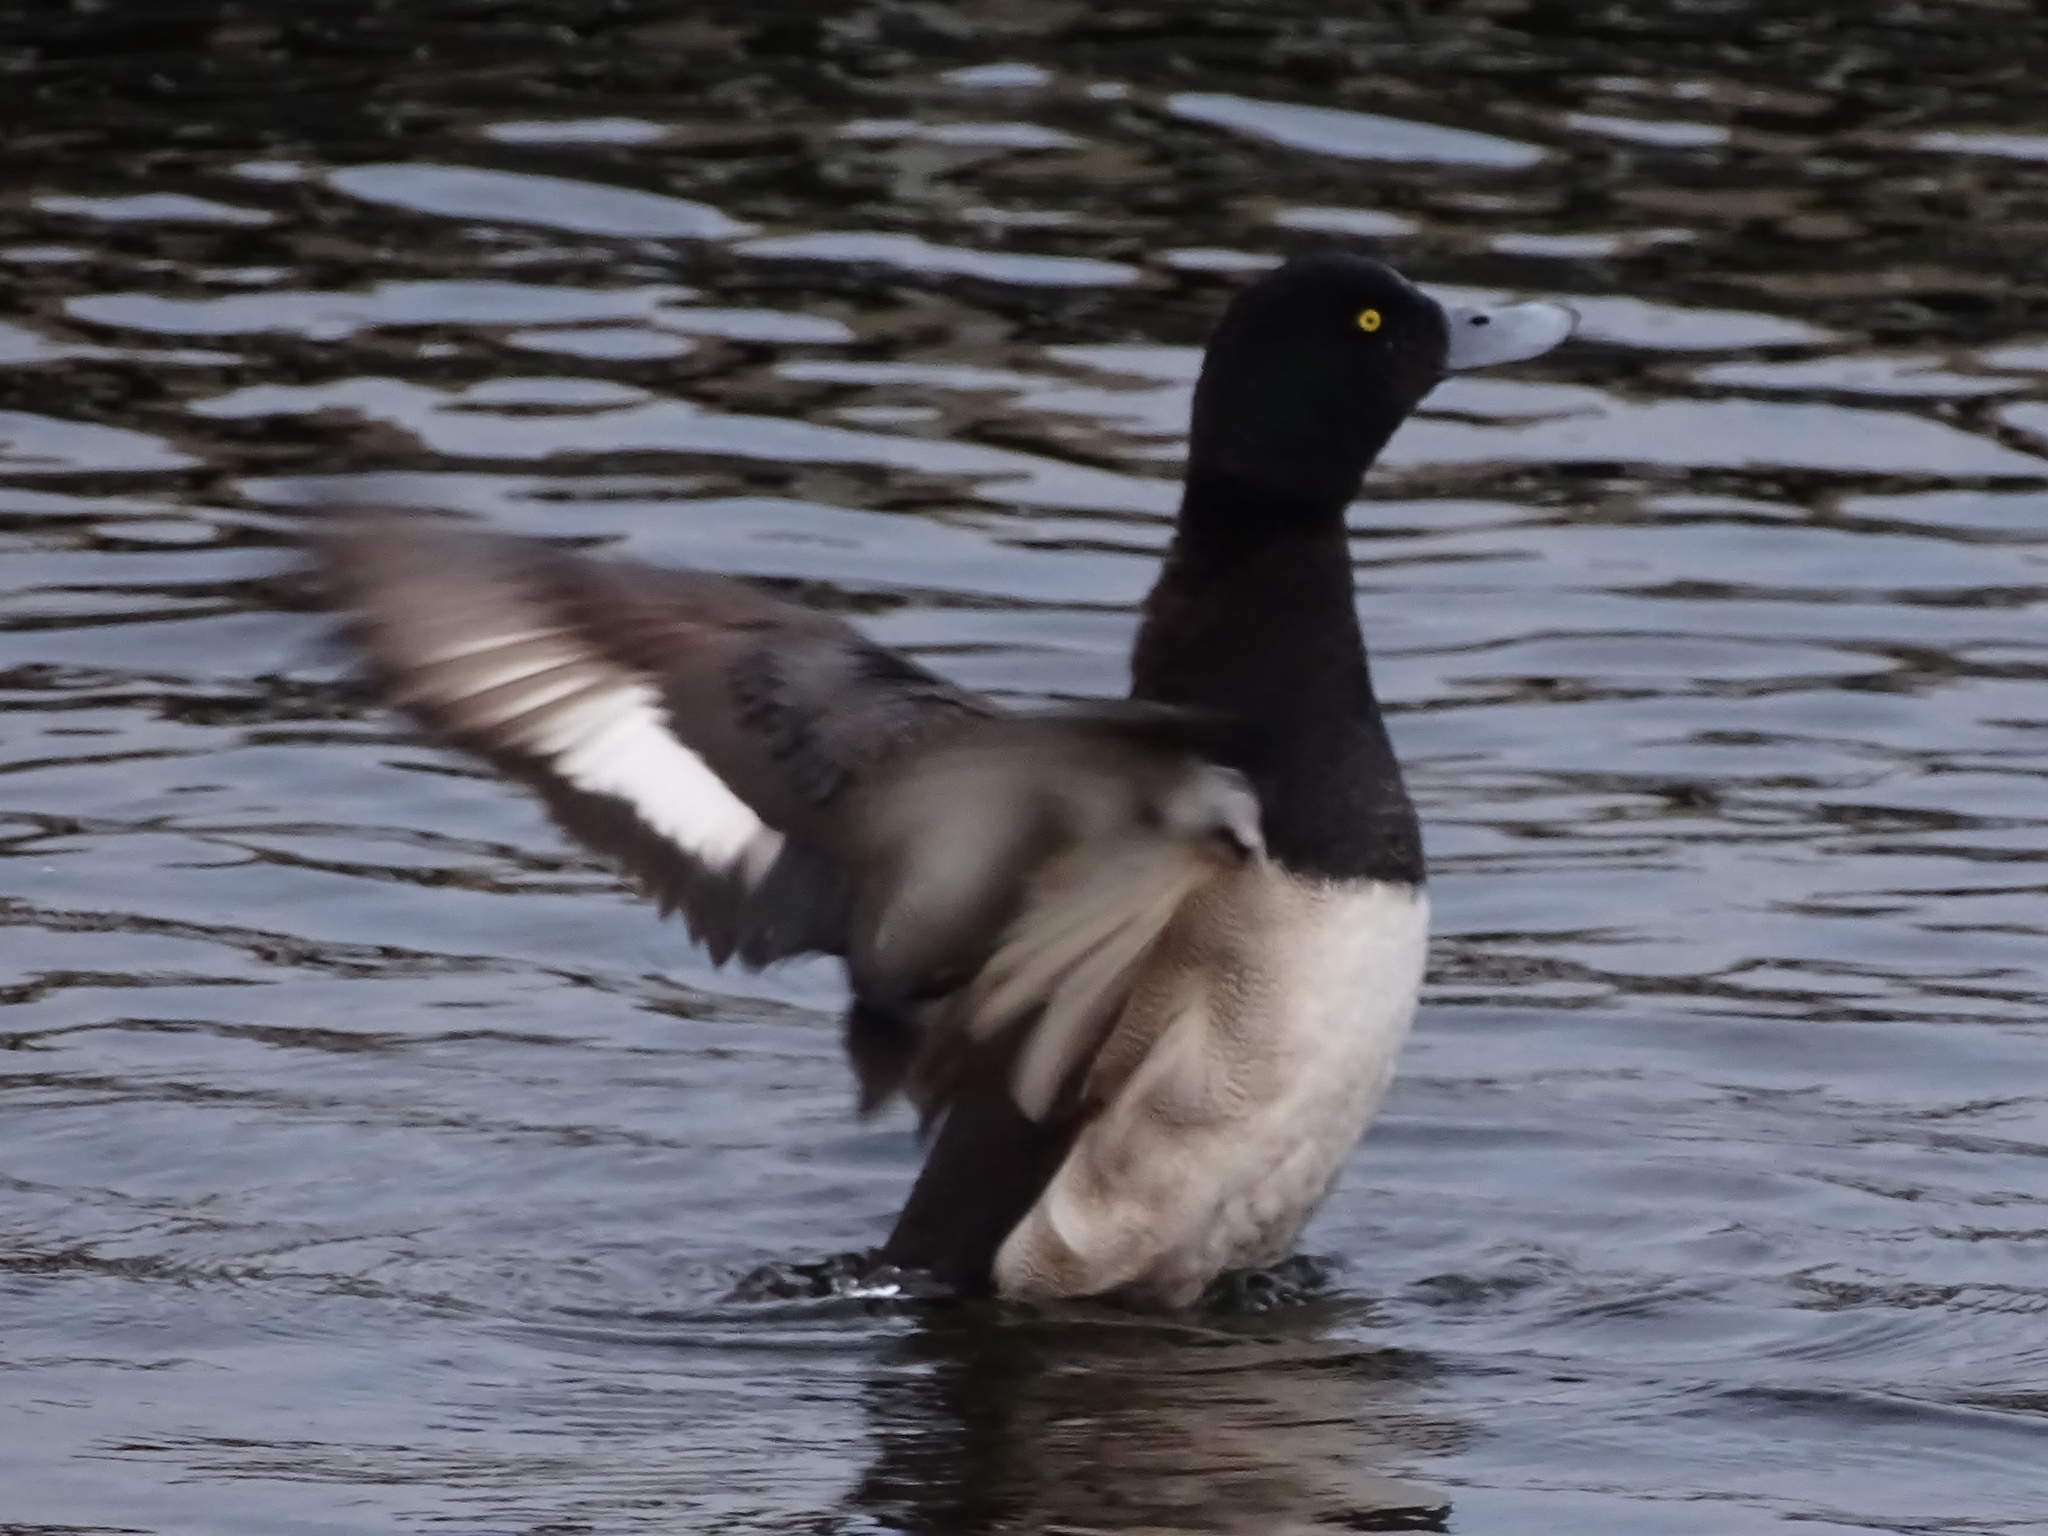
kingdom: Animalia
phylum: Chordata
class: Aves
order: Anseriformes
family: Anatidae
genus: Aythya
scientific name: Aythya marila
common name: Greater scaup
